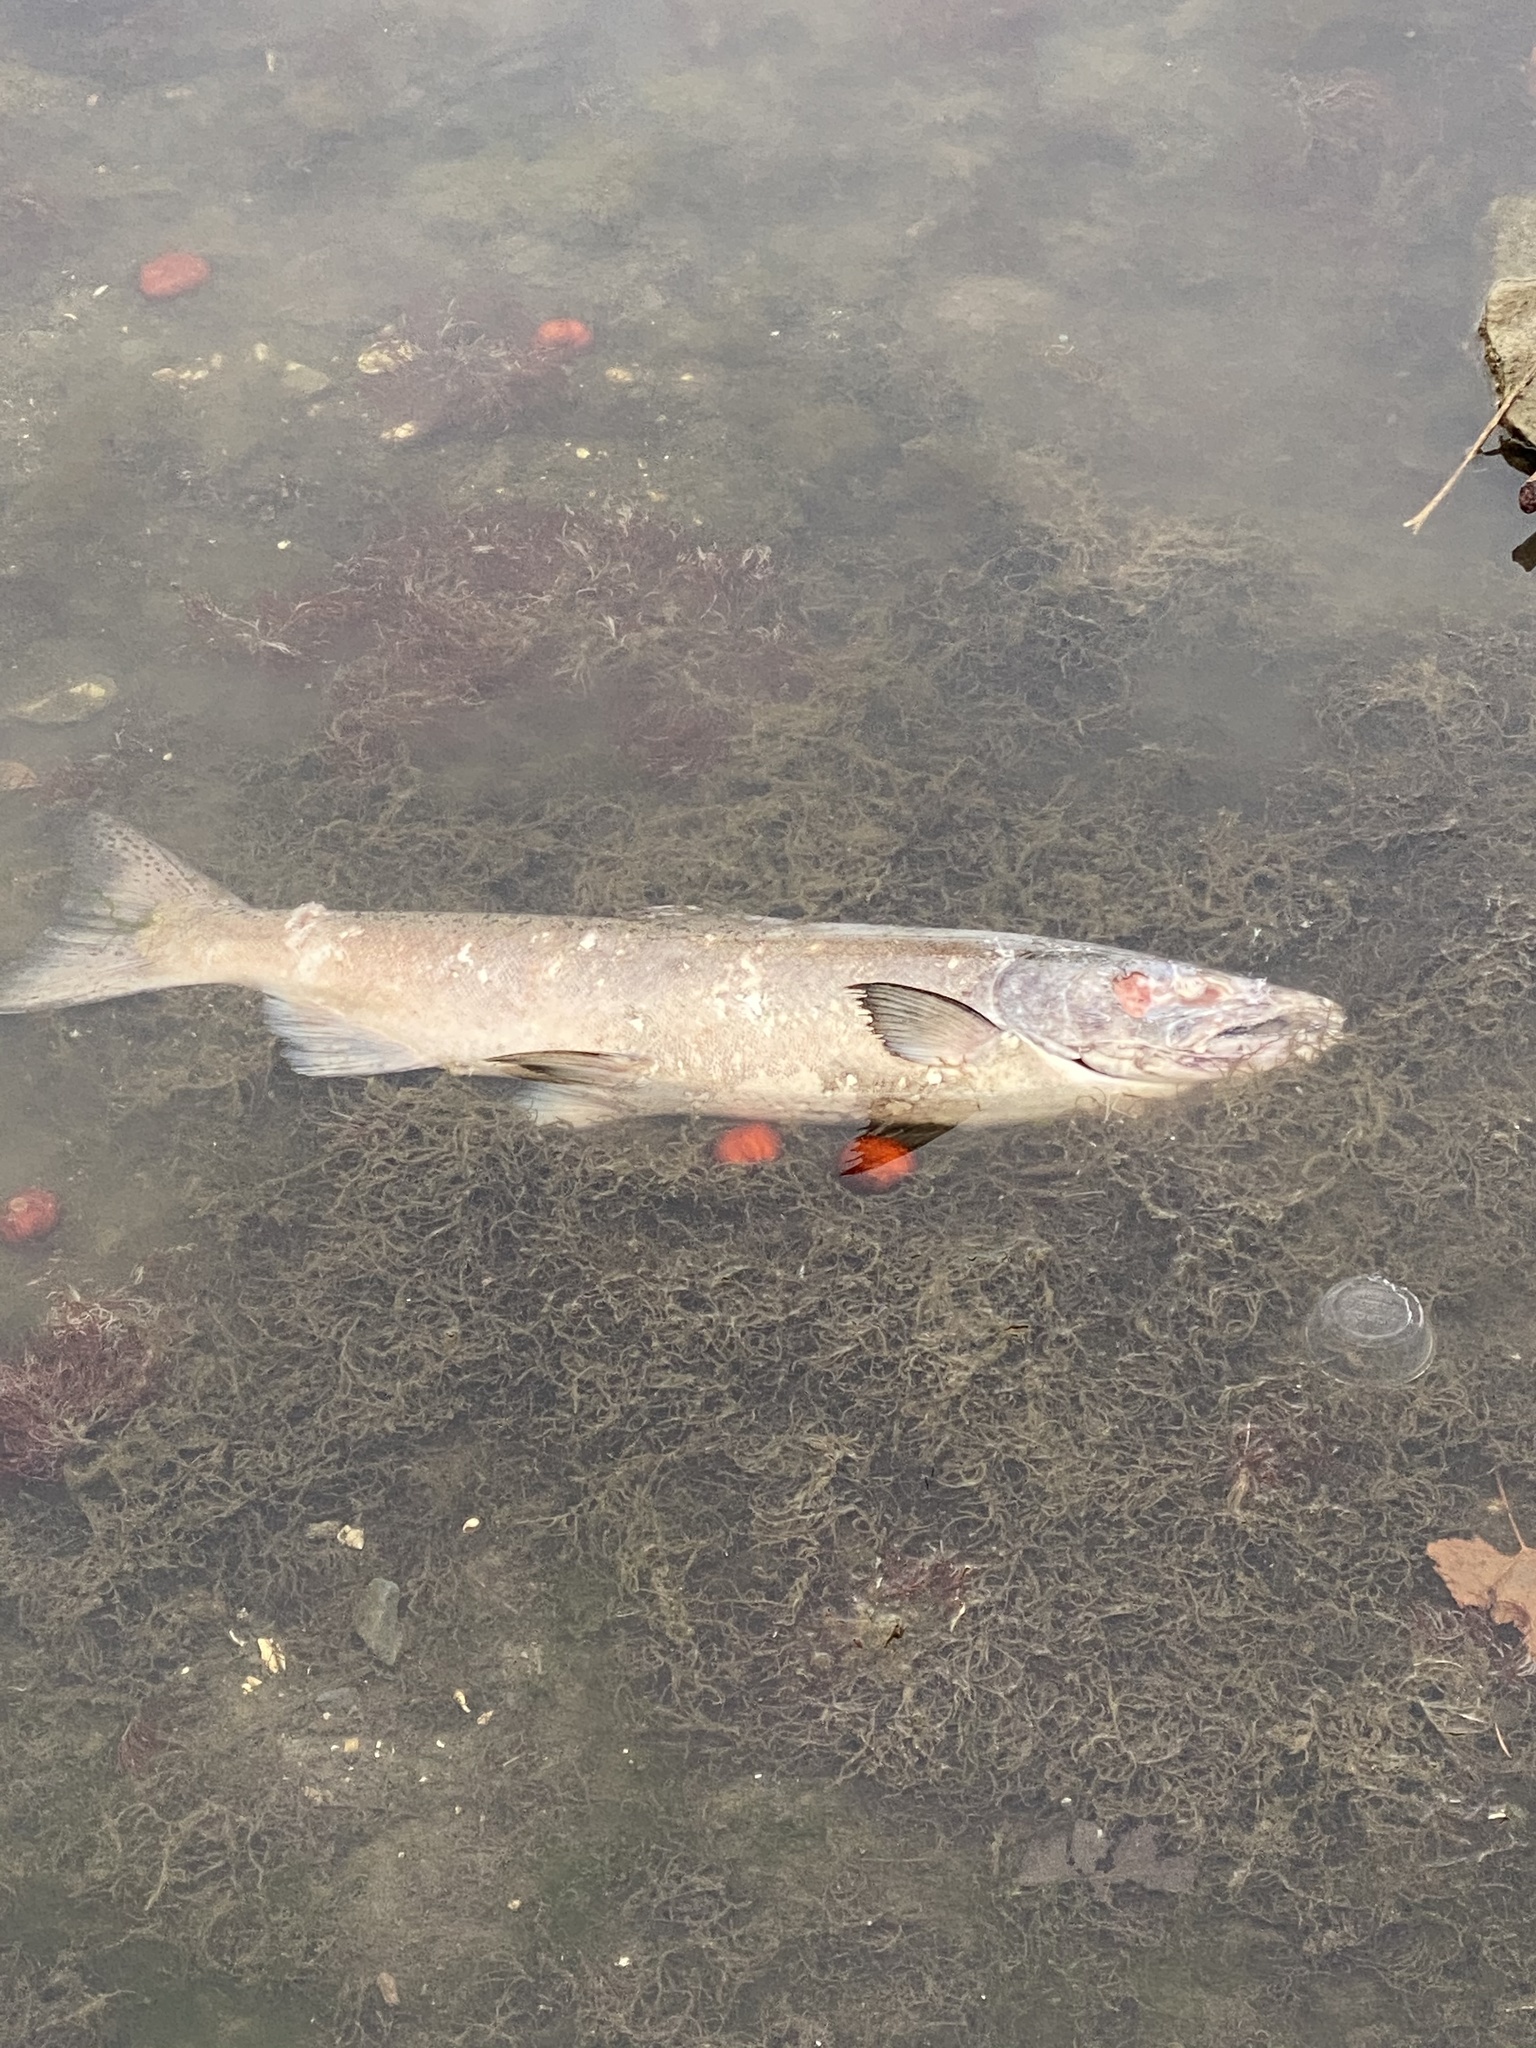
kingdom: Animalia
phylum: Chordata
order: Salmoniformes
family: Salmonidae
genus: Oncorhynchus
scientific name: Oncorhynchus tshawytscha
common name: Chinook salmon
